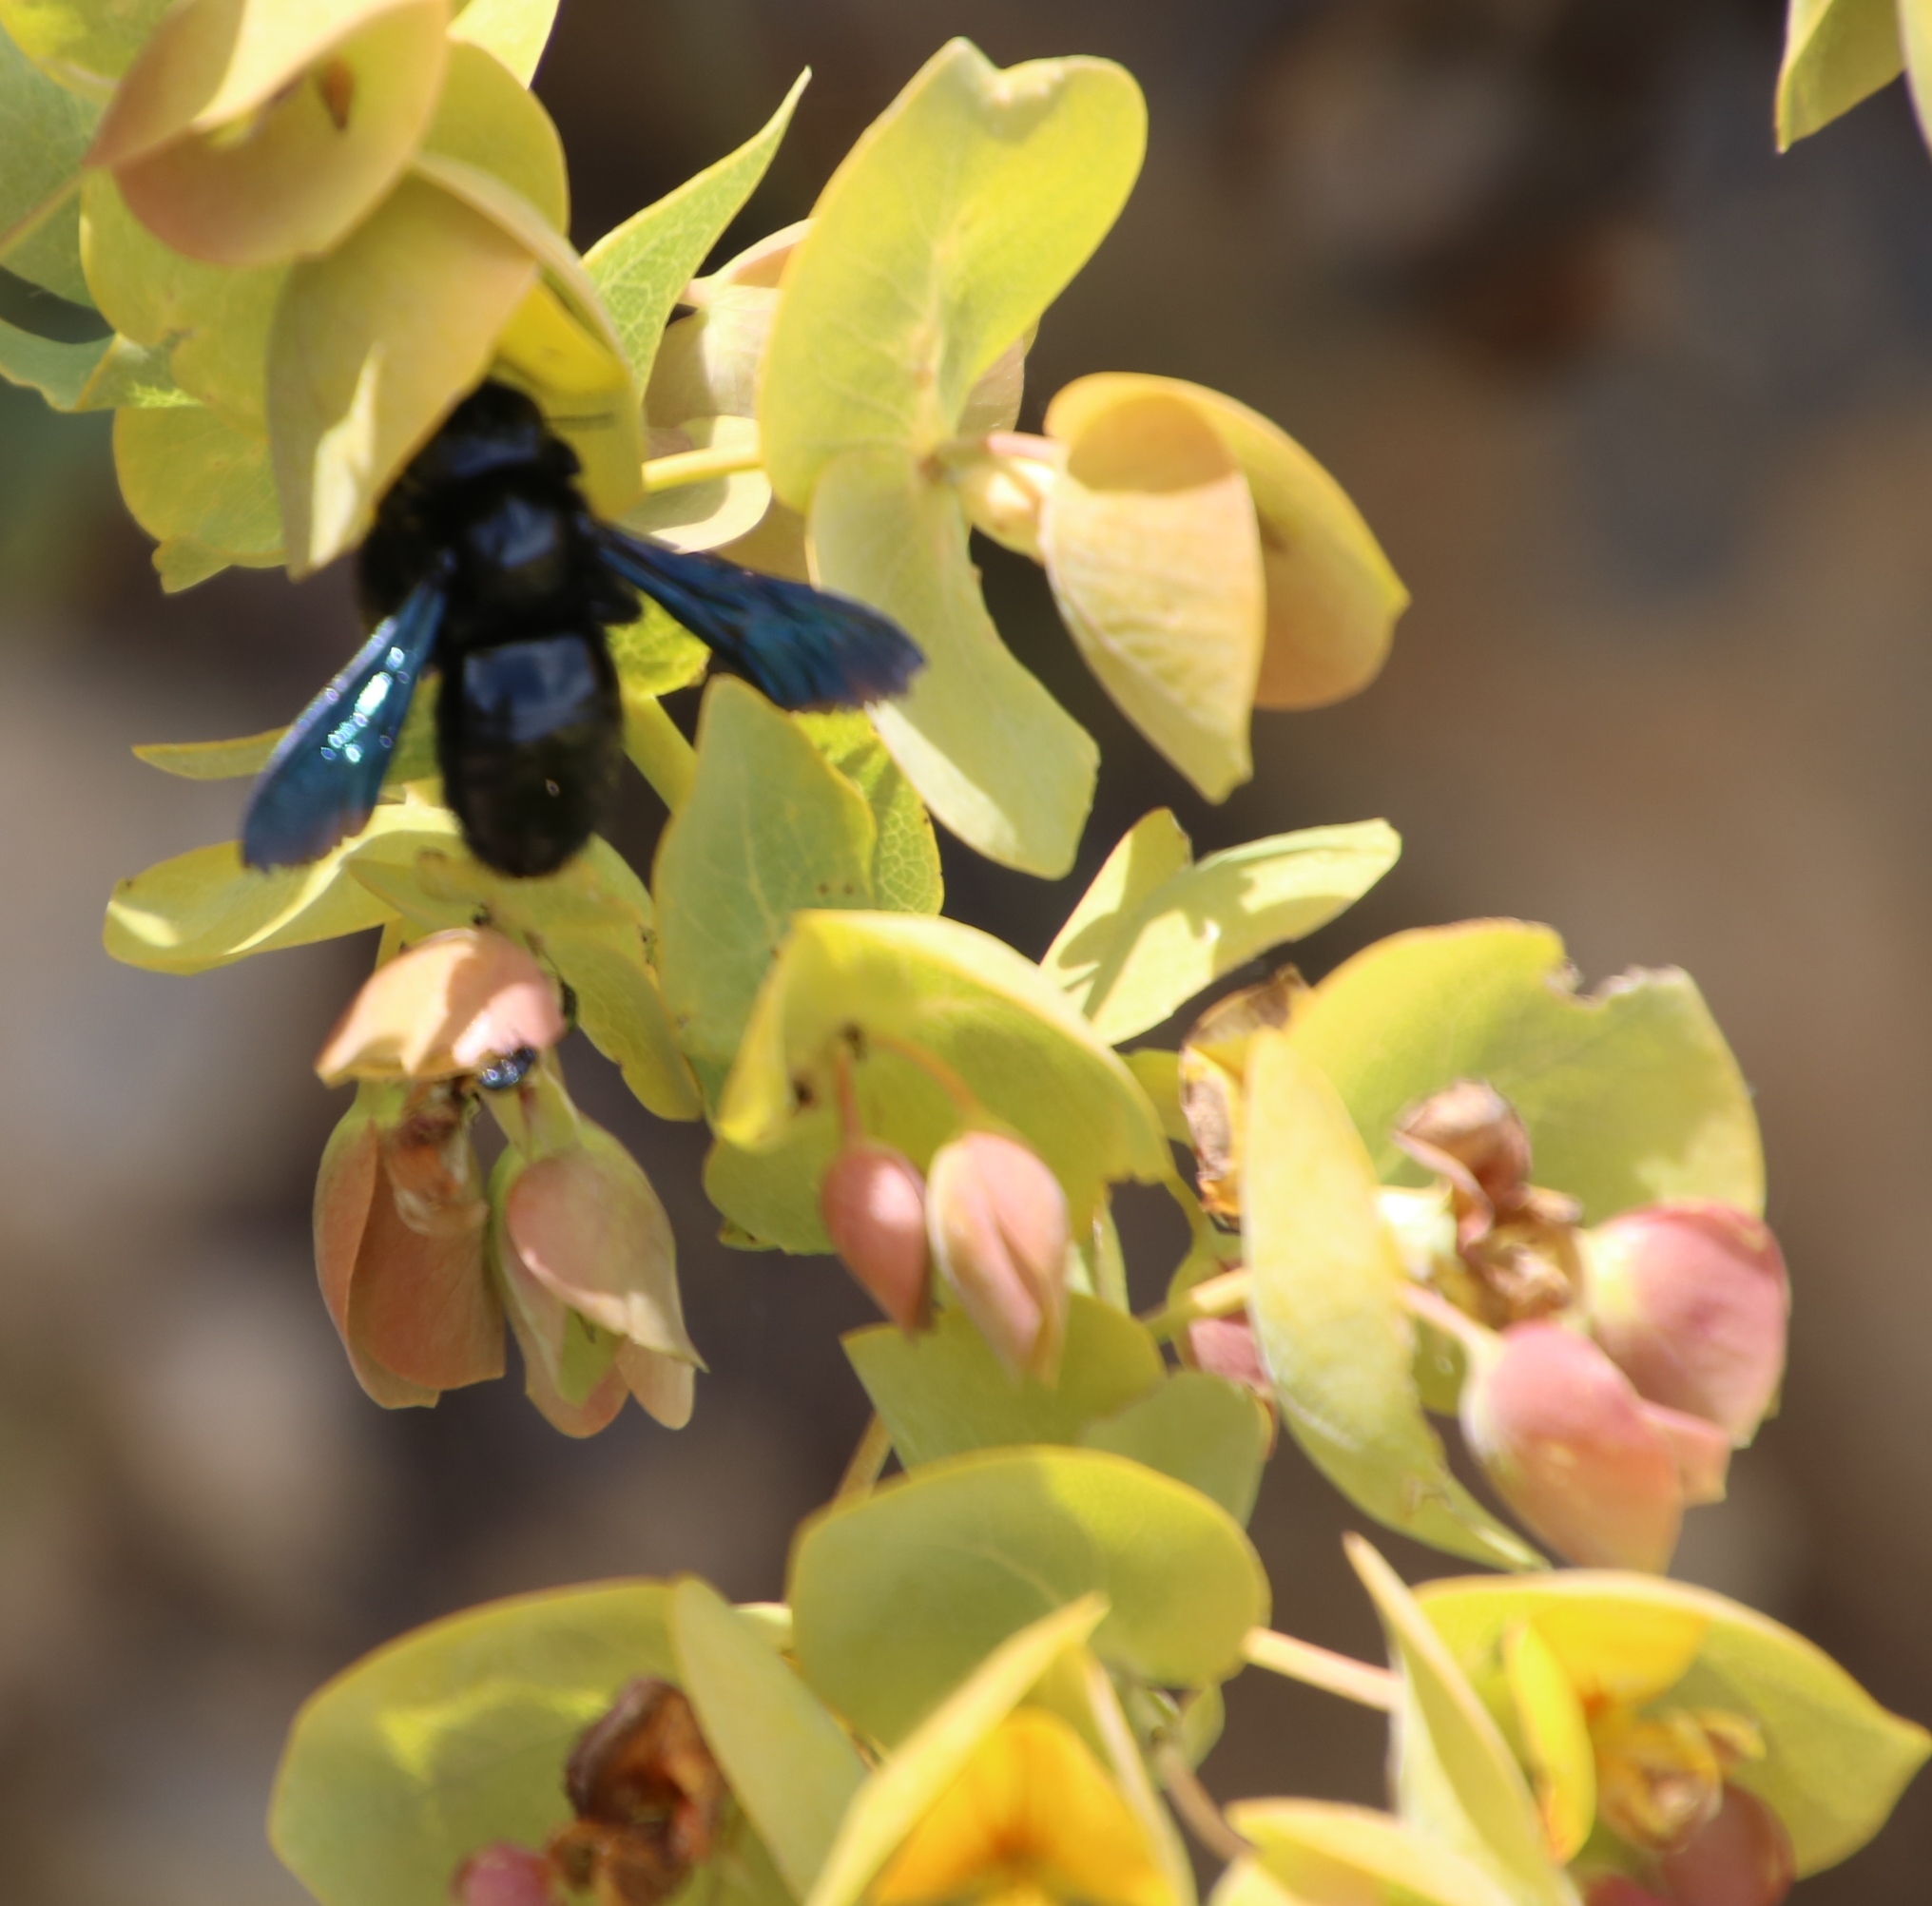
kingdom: Plantae
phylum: Tracheophyta
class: Magnoliopsida
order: Fabales
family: Fabaceae
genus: Rafnia
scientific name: Rafnia amplexicaulis
